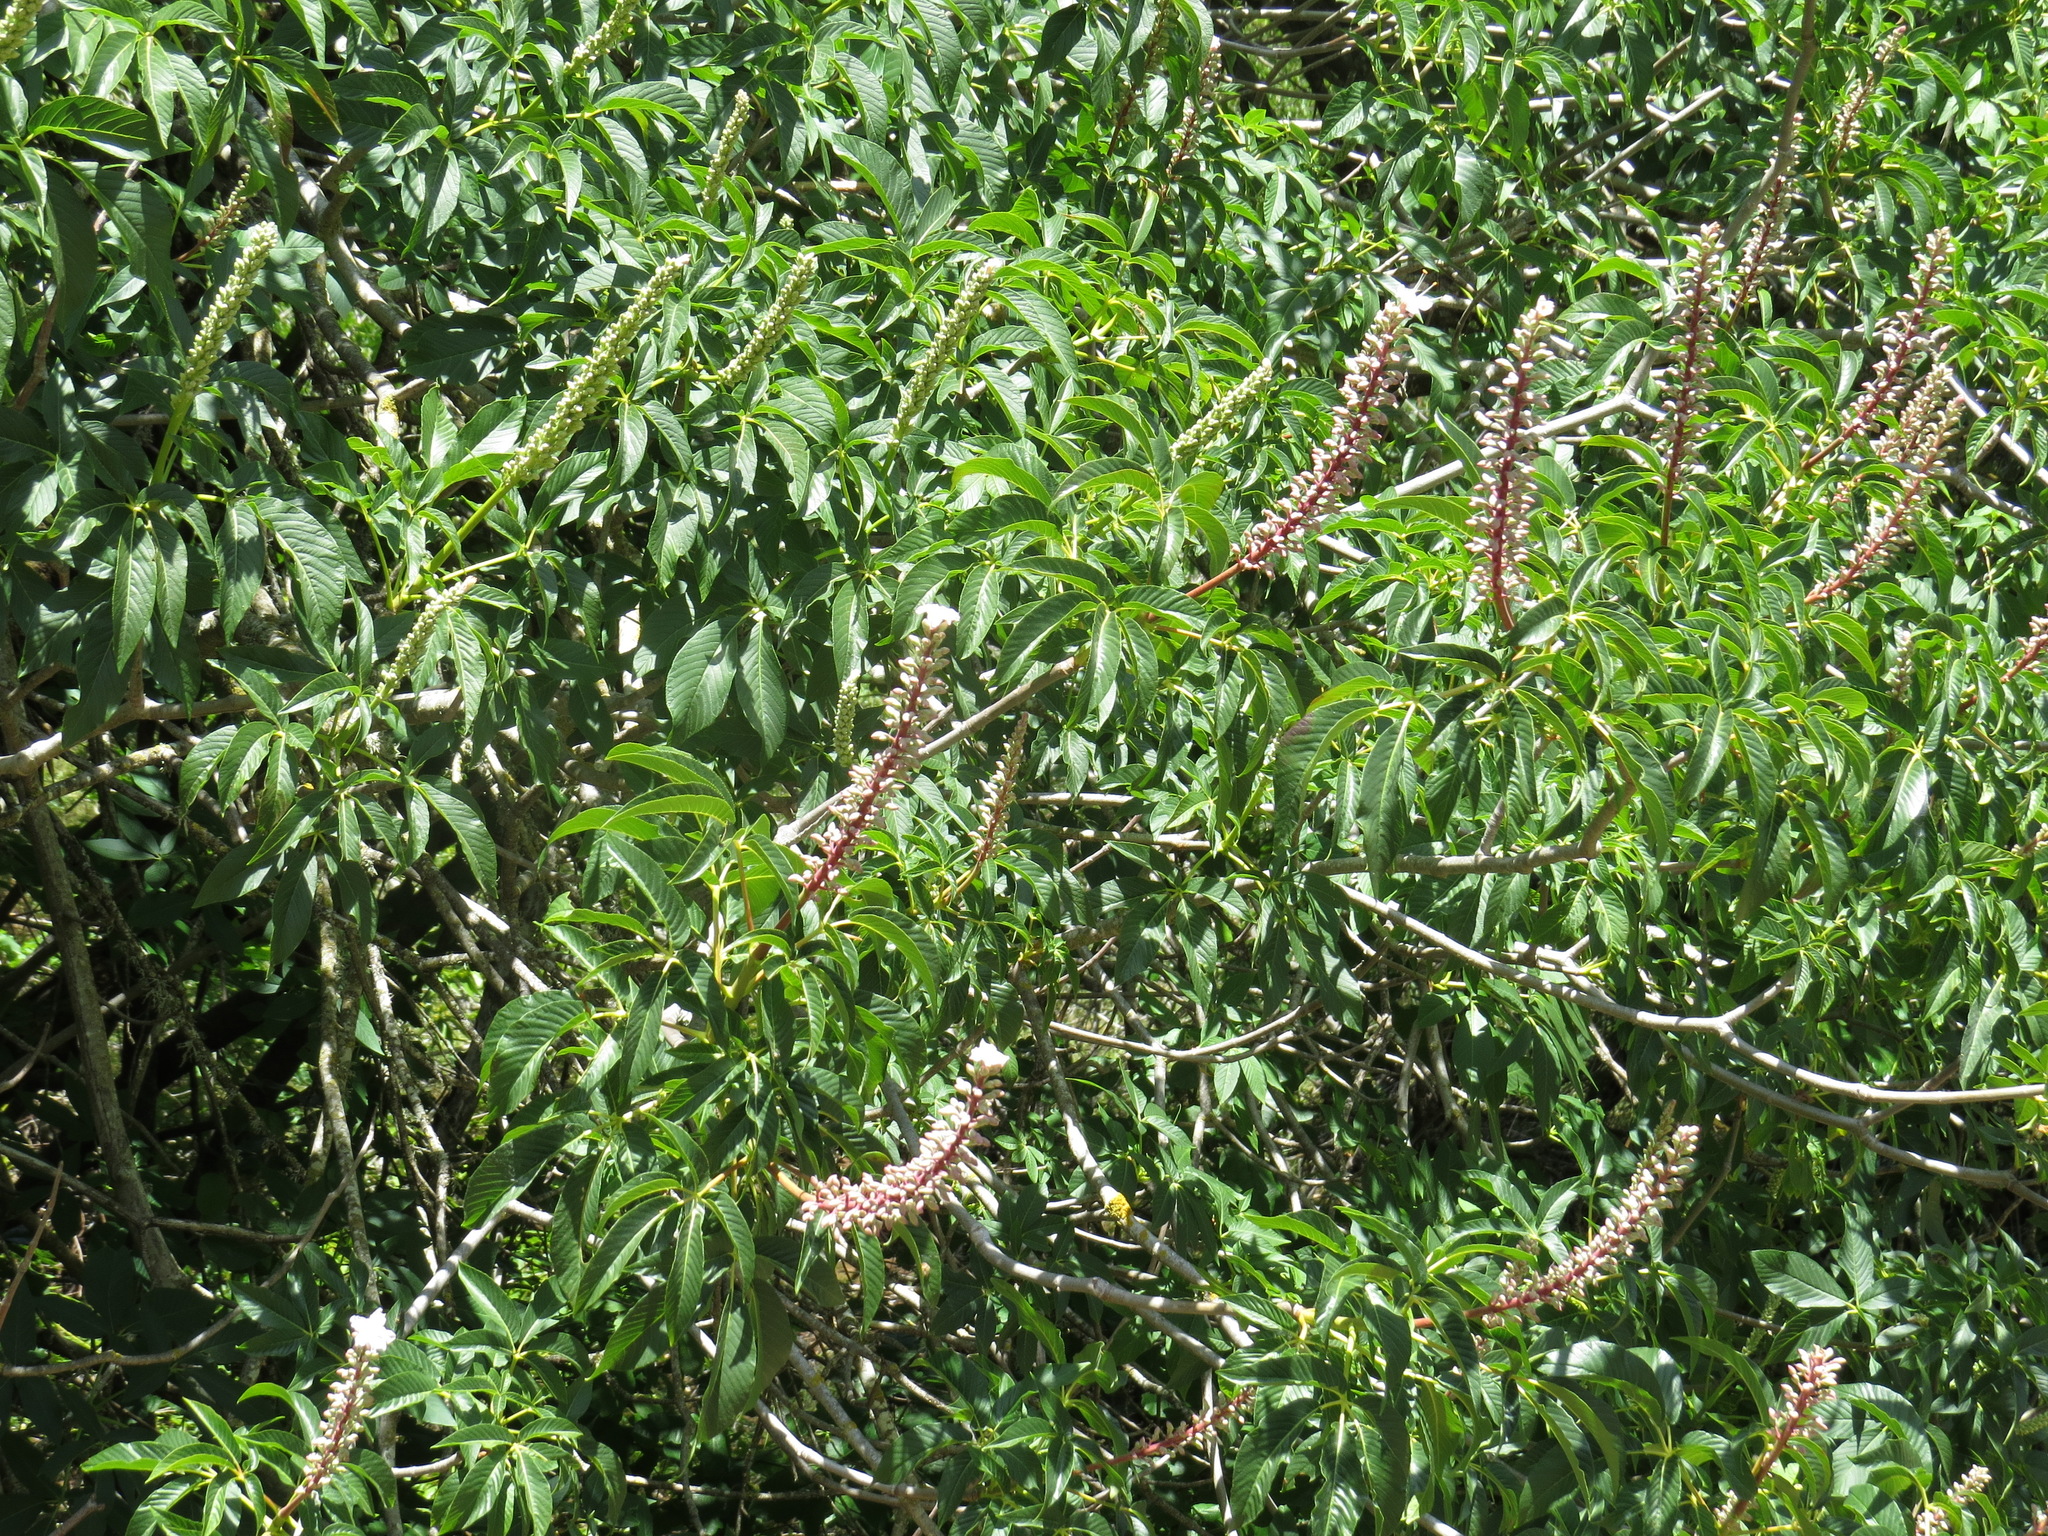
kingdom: Plantae
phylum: Tracheophyta
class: Magnoliopsida
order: Sapindales
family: Sapindaceae
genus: Aesculus
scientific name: Aesculus californica
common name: California buckeye
